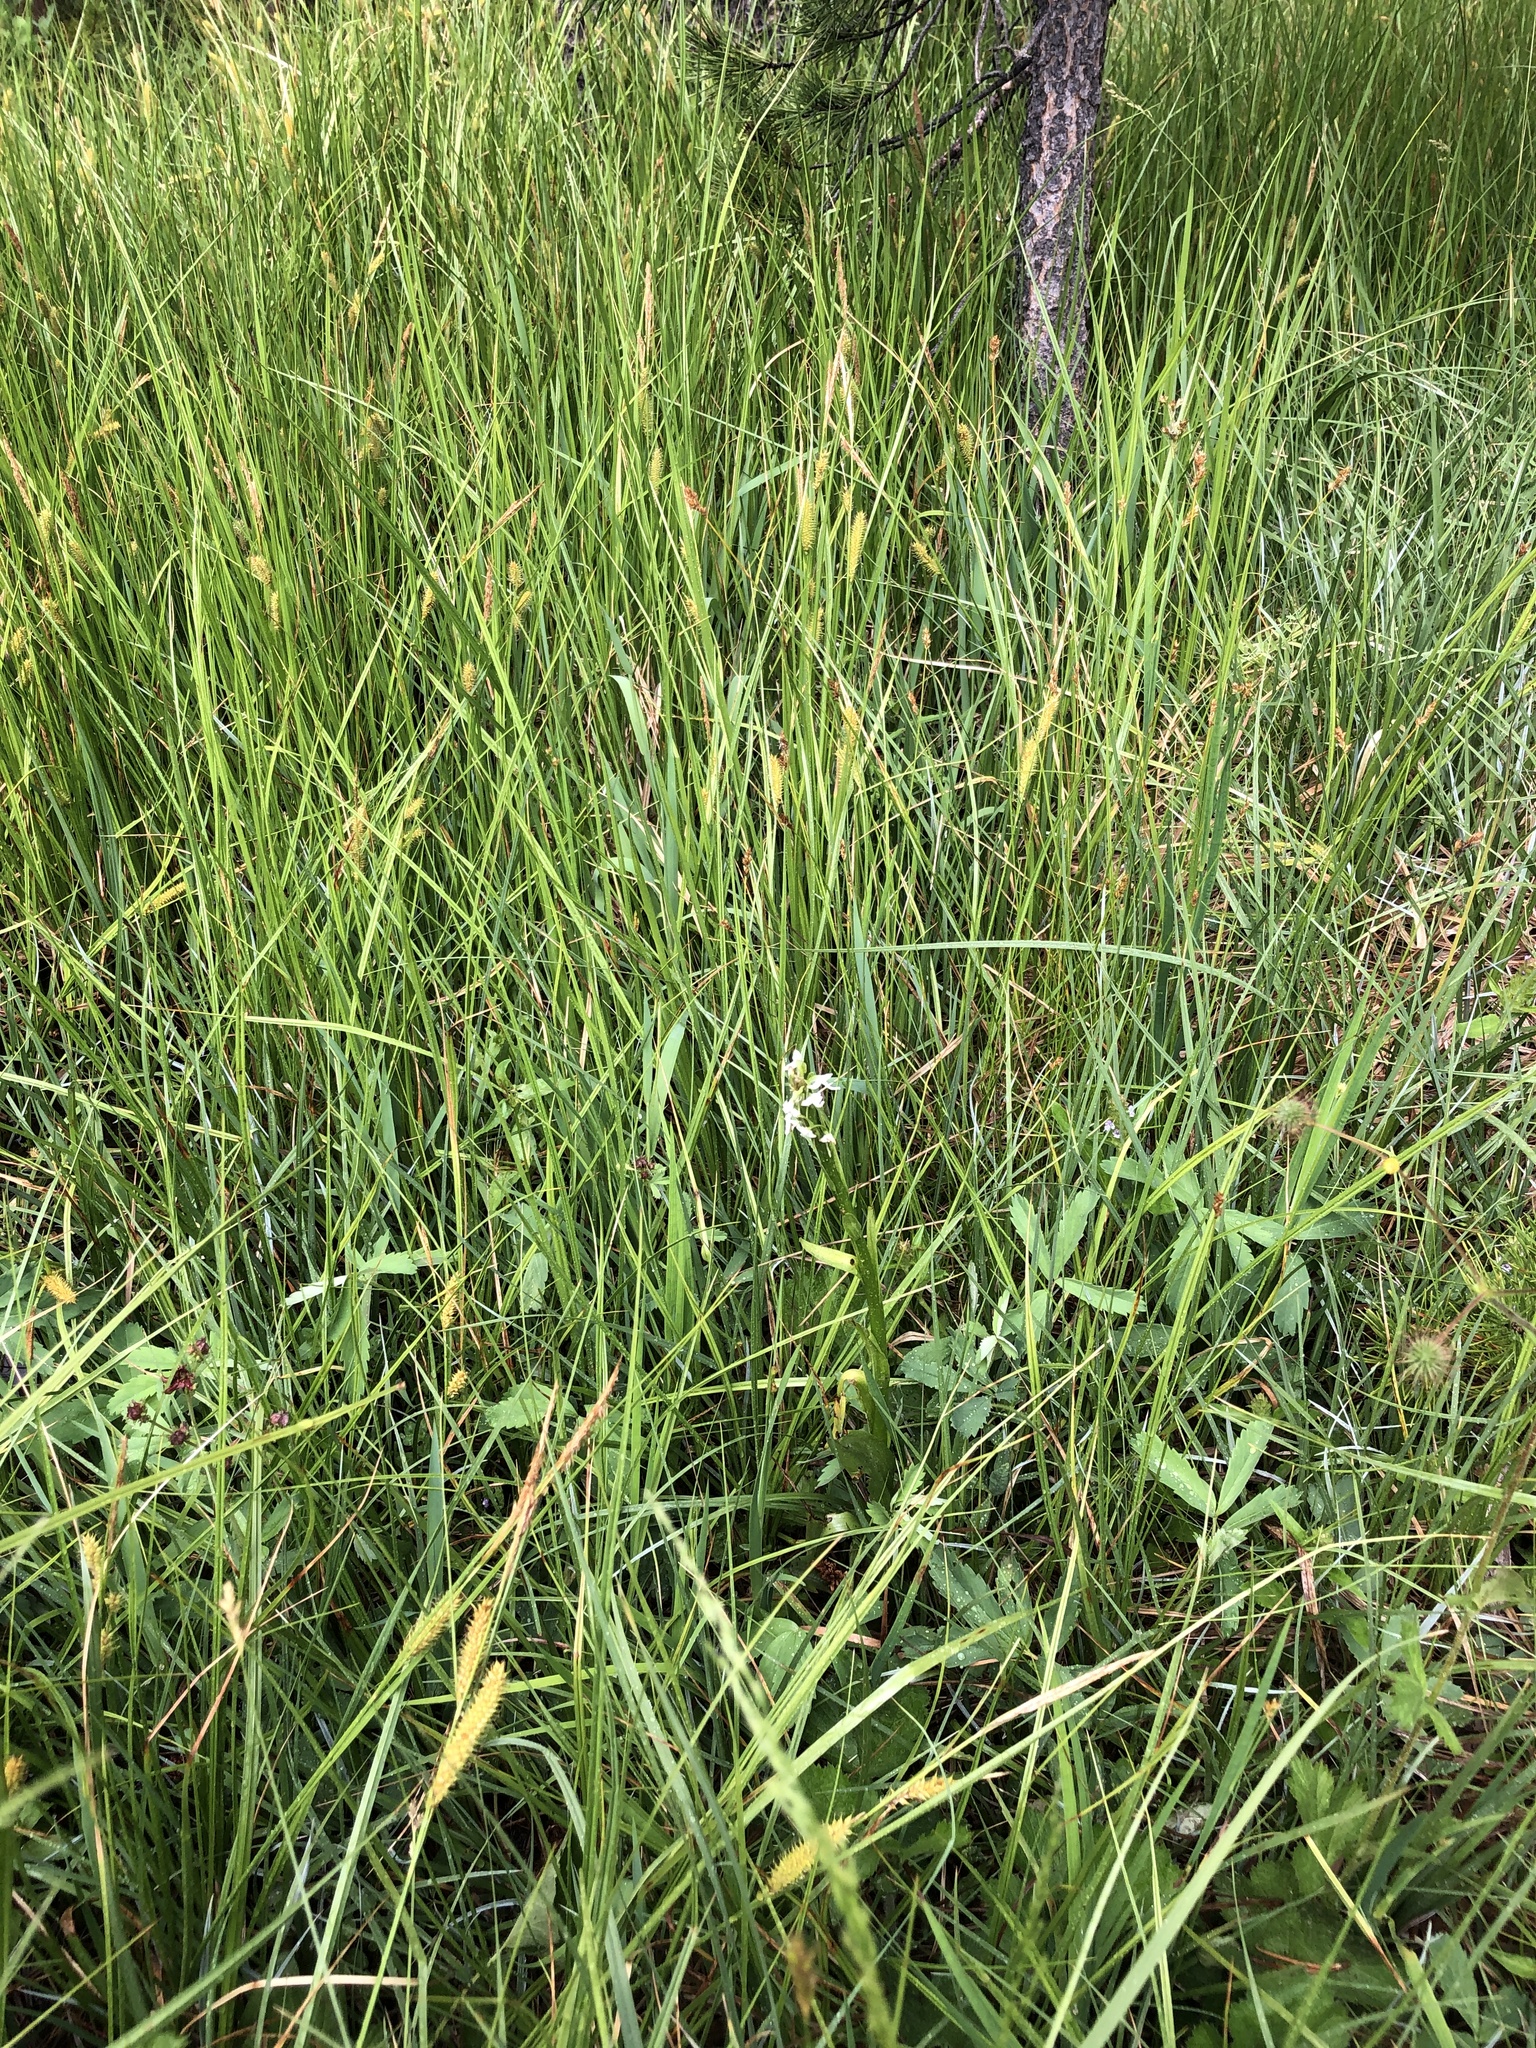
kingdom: Plantae
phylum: Tracheophyta
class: Liliopsida
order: Asparagales
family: Orchidaceae
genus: Platanthera
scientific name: Platanthera dilatata
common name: Bog candles
